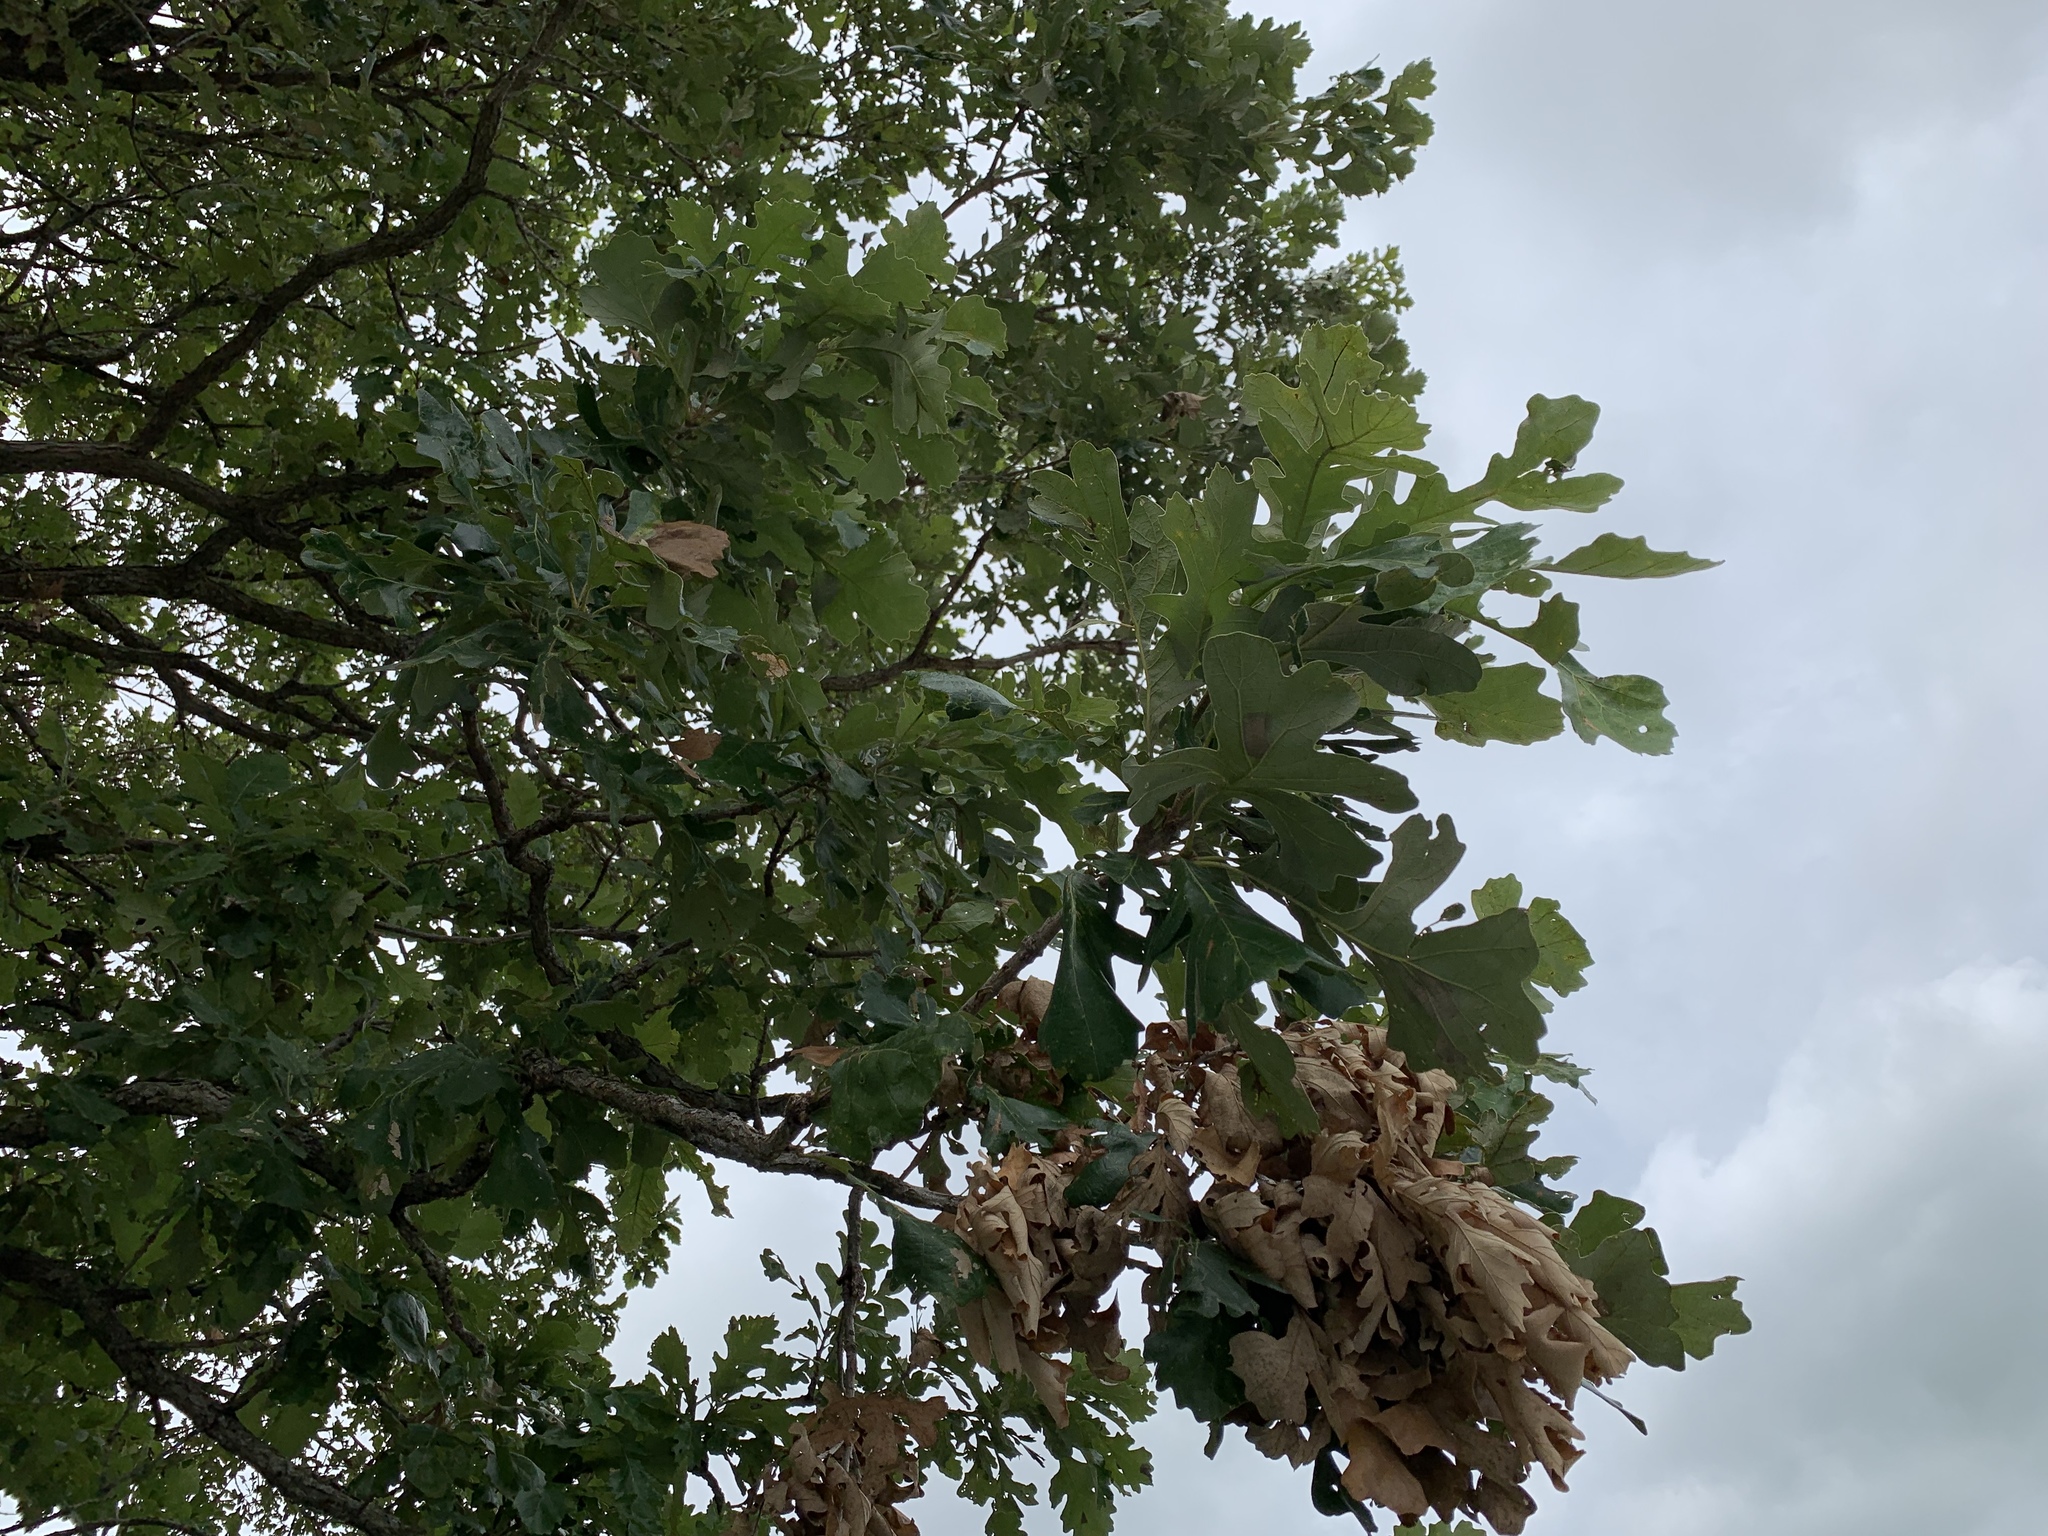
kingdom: Plantae
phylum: Tracheophyta
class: Magnoliopsida
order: Fagales
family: Fagaceae
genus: Quercus
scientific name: Quercus macrocarpa
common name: Bur oak
